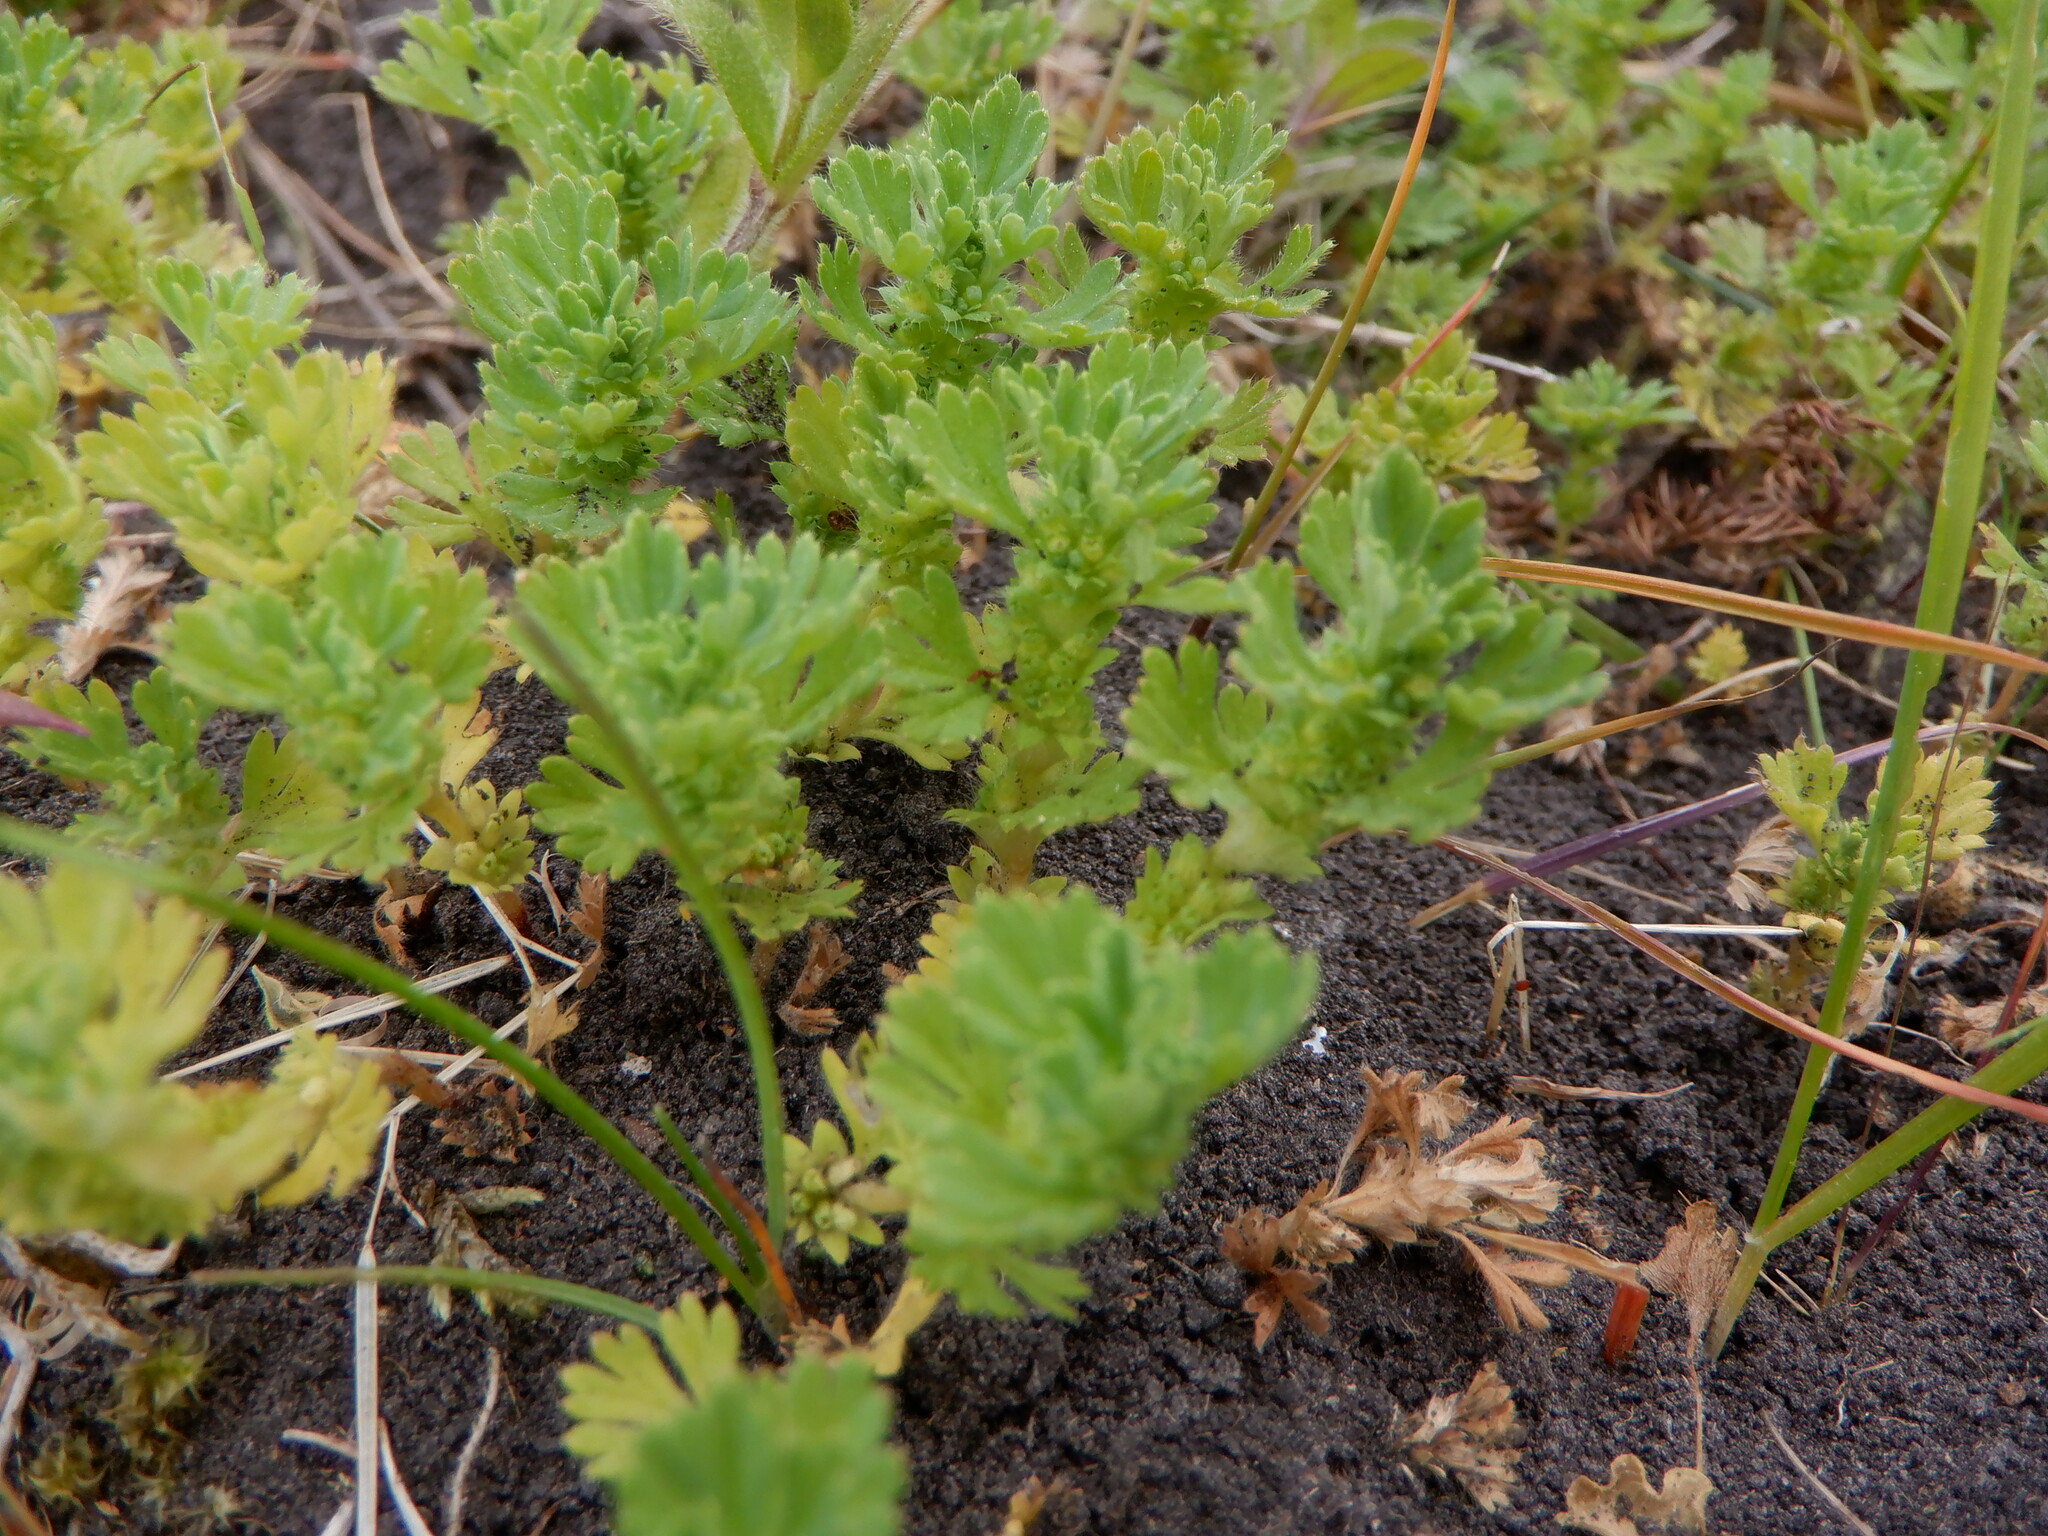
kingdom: Plantae
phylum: Tracheophyta
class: Magnoliopsida
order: Rosales
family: Rosaceae
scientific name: Rosaceae
